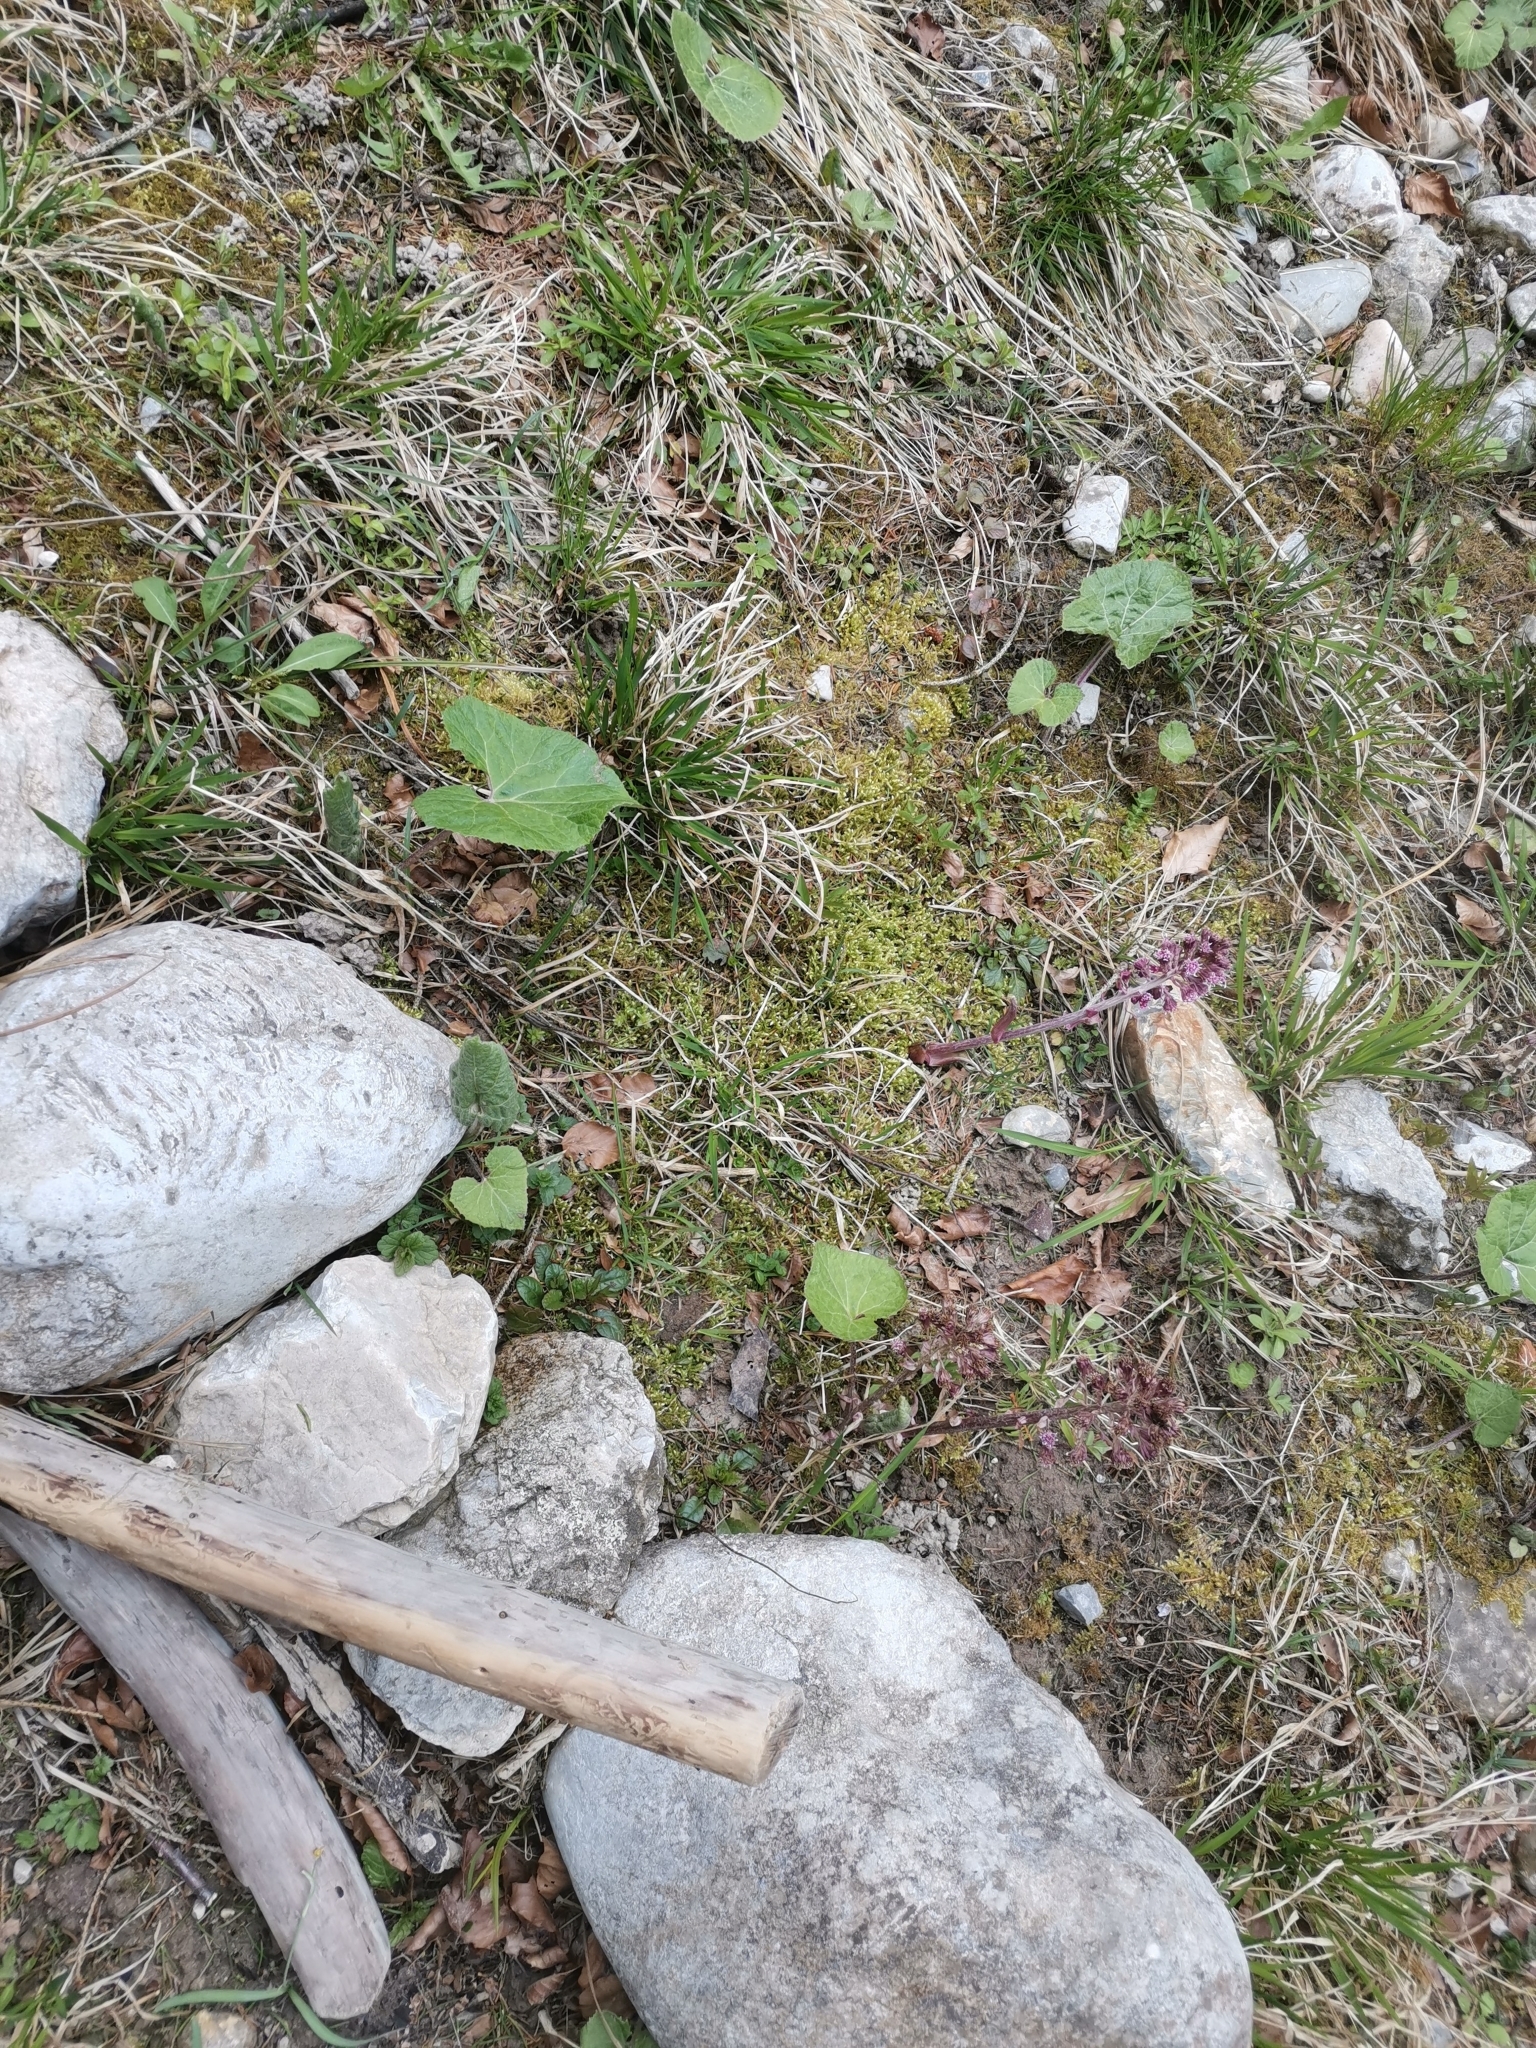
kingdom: Plantae
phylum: Tracheophyta
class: Magnoliopsida
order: Asterales
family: Asteraceae
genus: Petasites
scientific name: Petasites paradoxus
